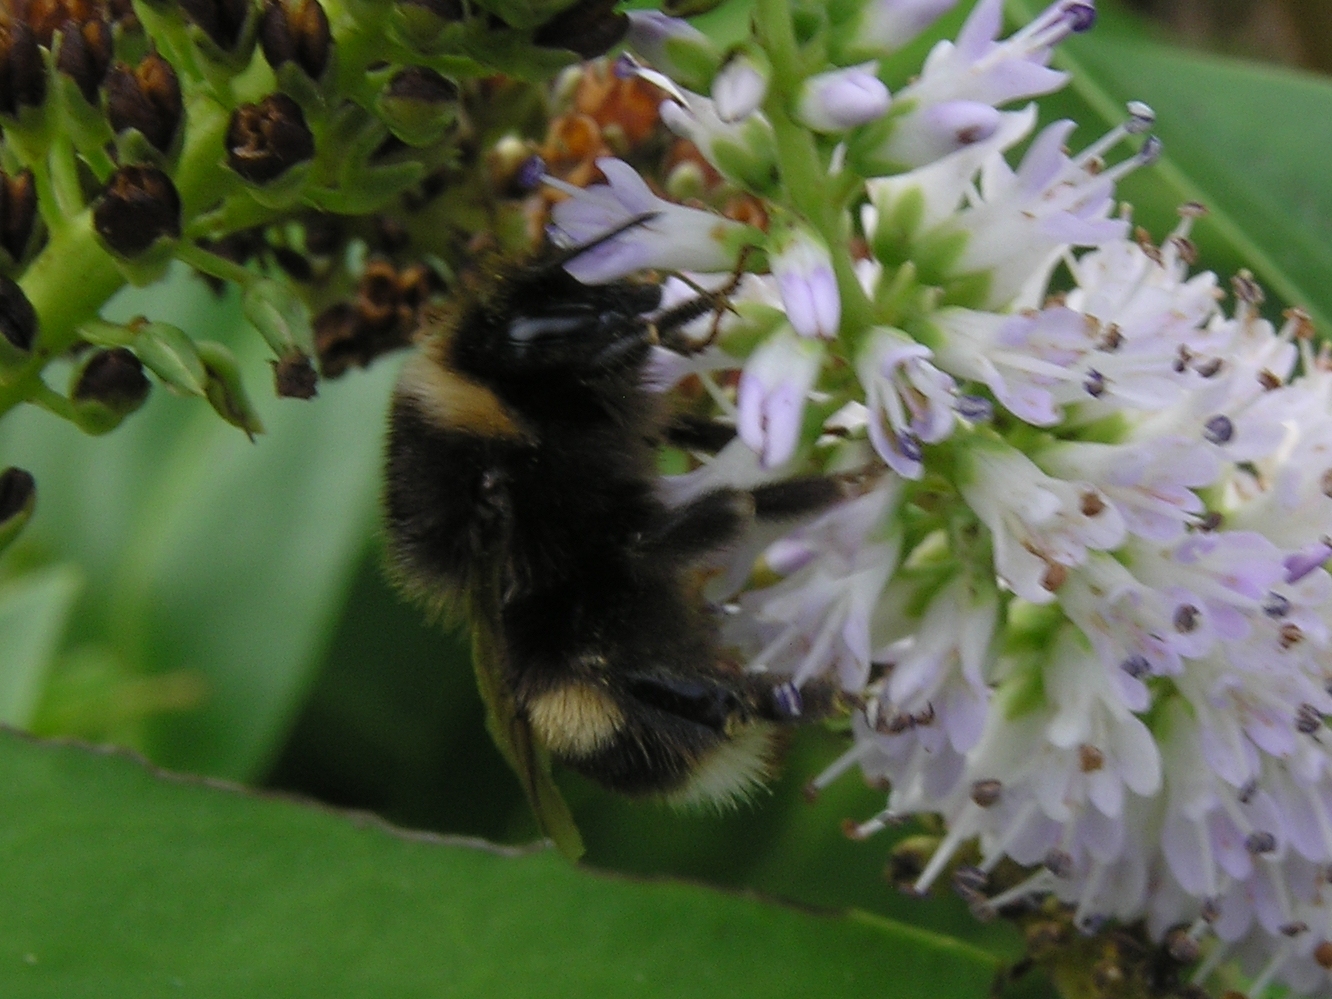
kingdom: Animalia
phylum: Arthropoda
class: Insecta
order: Hymenoptera
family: Apidae
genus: Bombus
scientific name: Bombus terrestris
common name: Buff-tailed bumblebee
